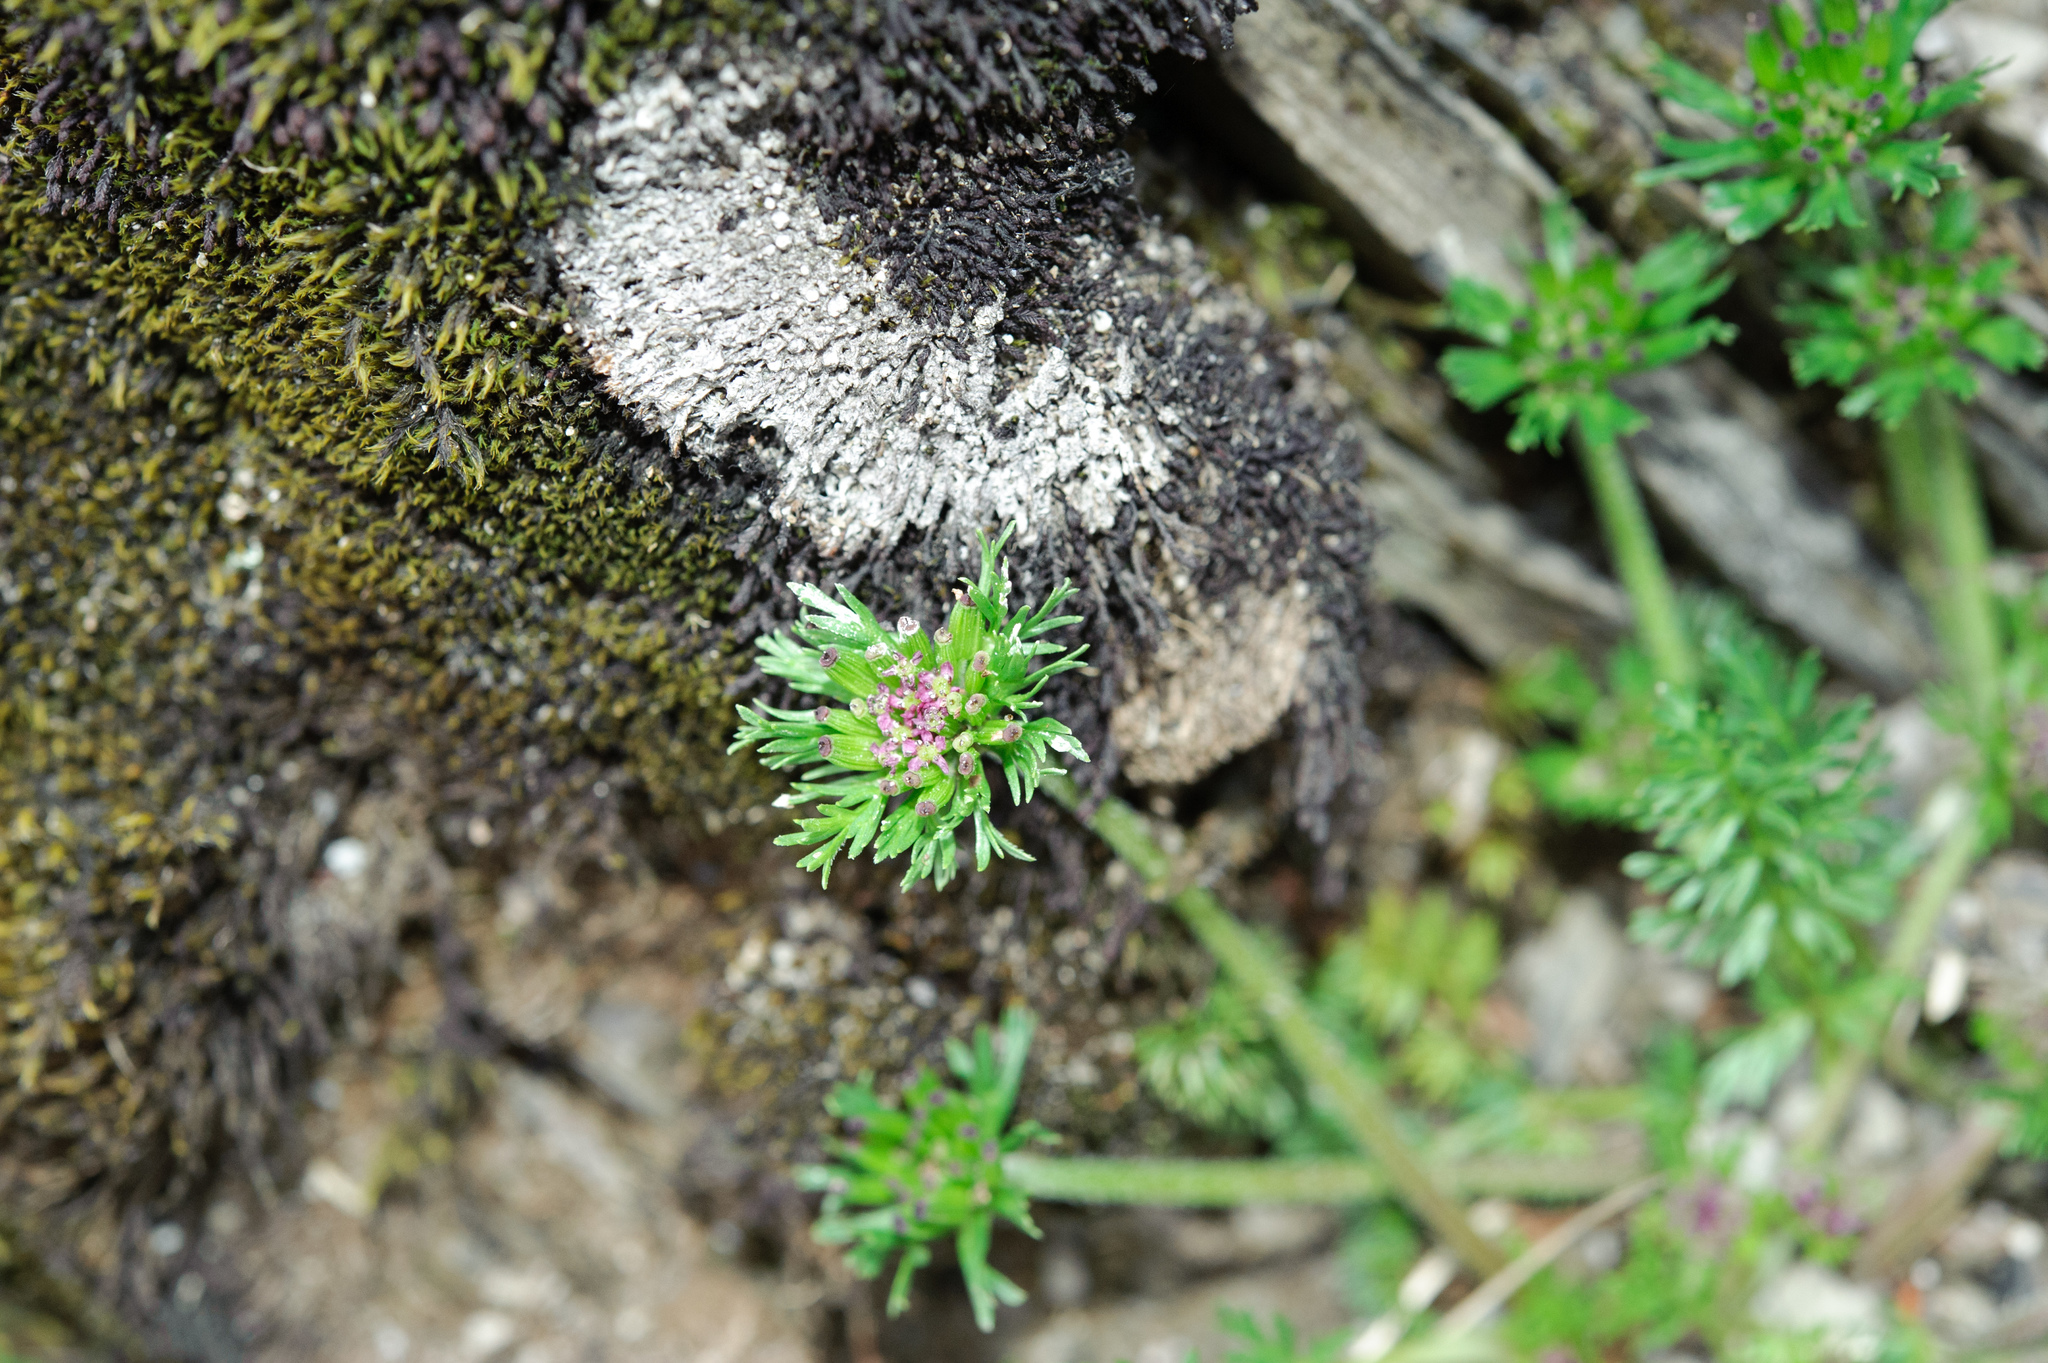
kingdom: Plantae
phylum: Tracheophyta
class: Magnoliopsida
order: Apiales
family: Apiaceae
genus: Chaerophyllum
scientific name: Chaerophyllum taiwanianum
